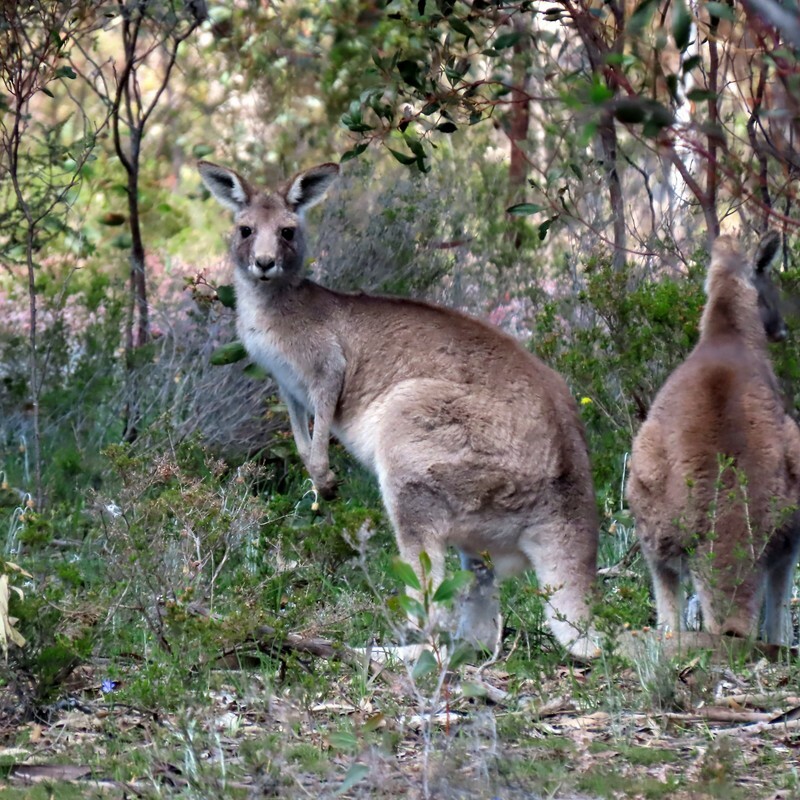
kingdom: Animalia
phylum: Chordata
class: Mammalia
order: Diprotodontia
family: Macropodidae
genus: Macropus
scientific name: Macropus giganteus
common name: Eastern grey kangaroo
